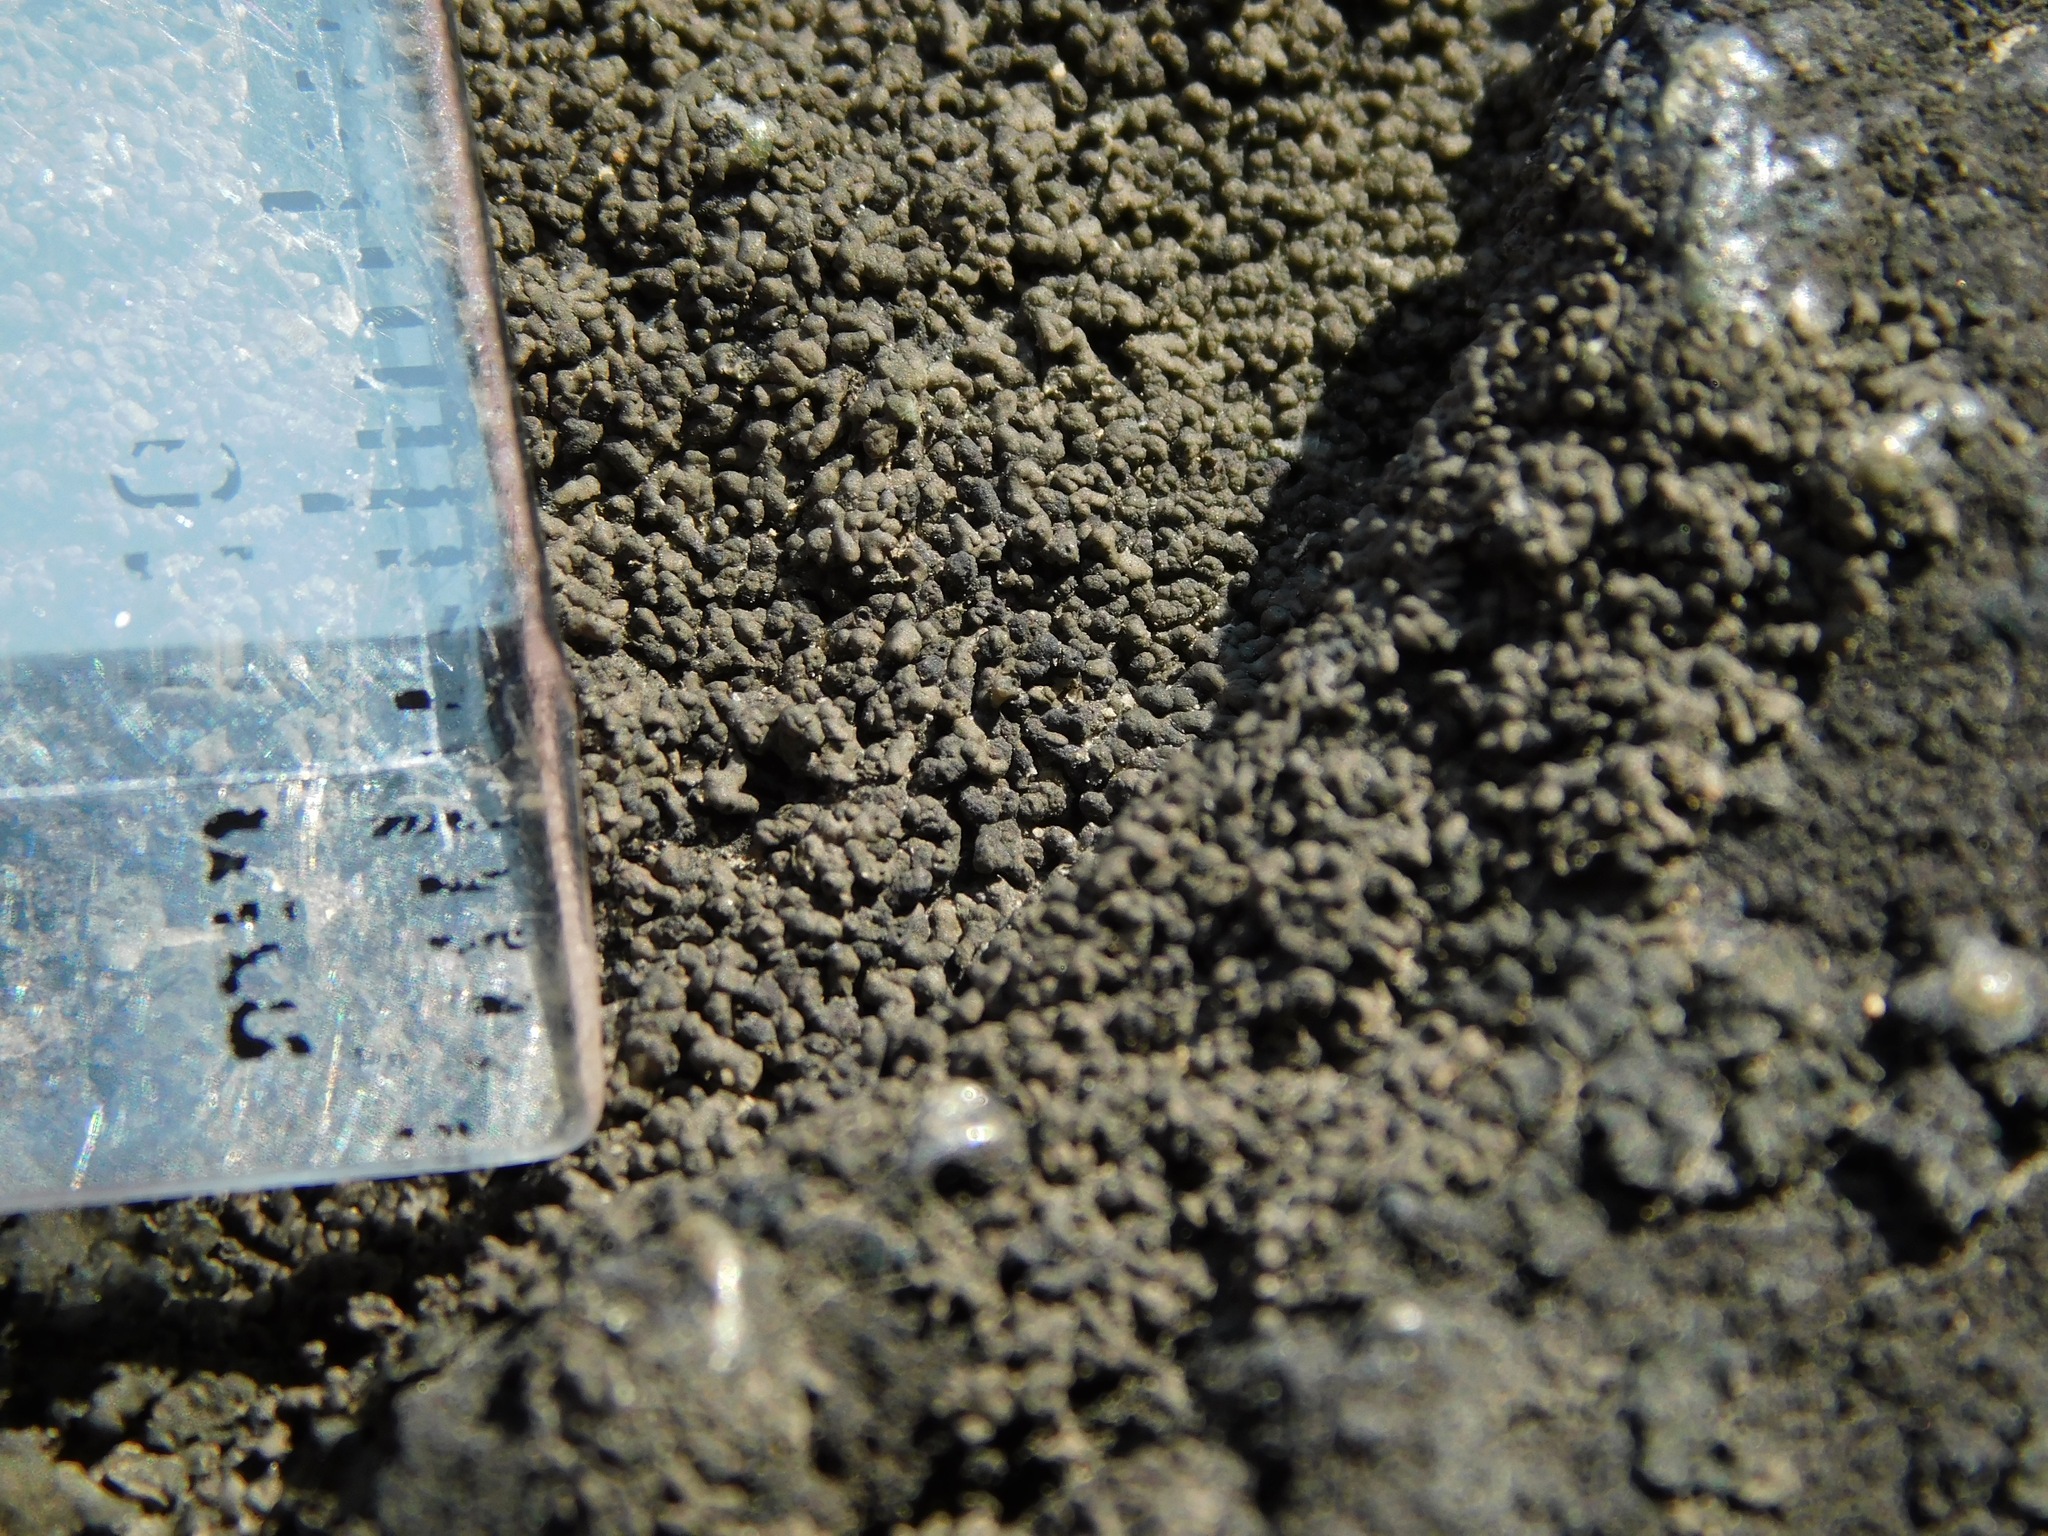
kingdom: Fungi
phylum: Ascomycota
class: Eurotiomycetes
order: Verrucariales
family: Verrucariaceae
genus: Endocarpon
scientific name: Endocarpon petrolepideum
